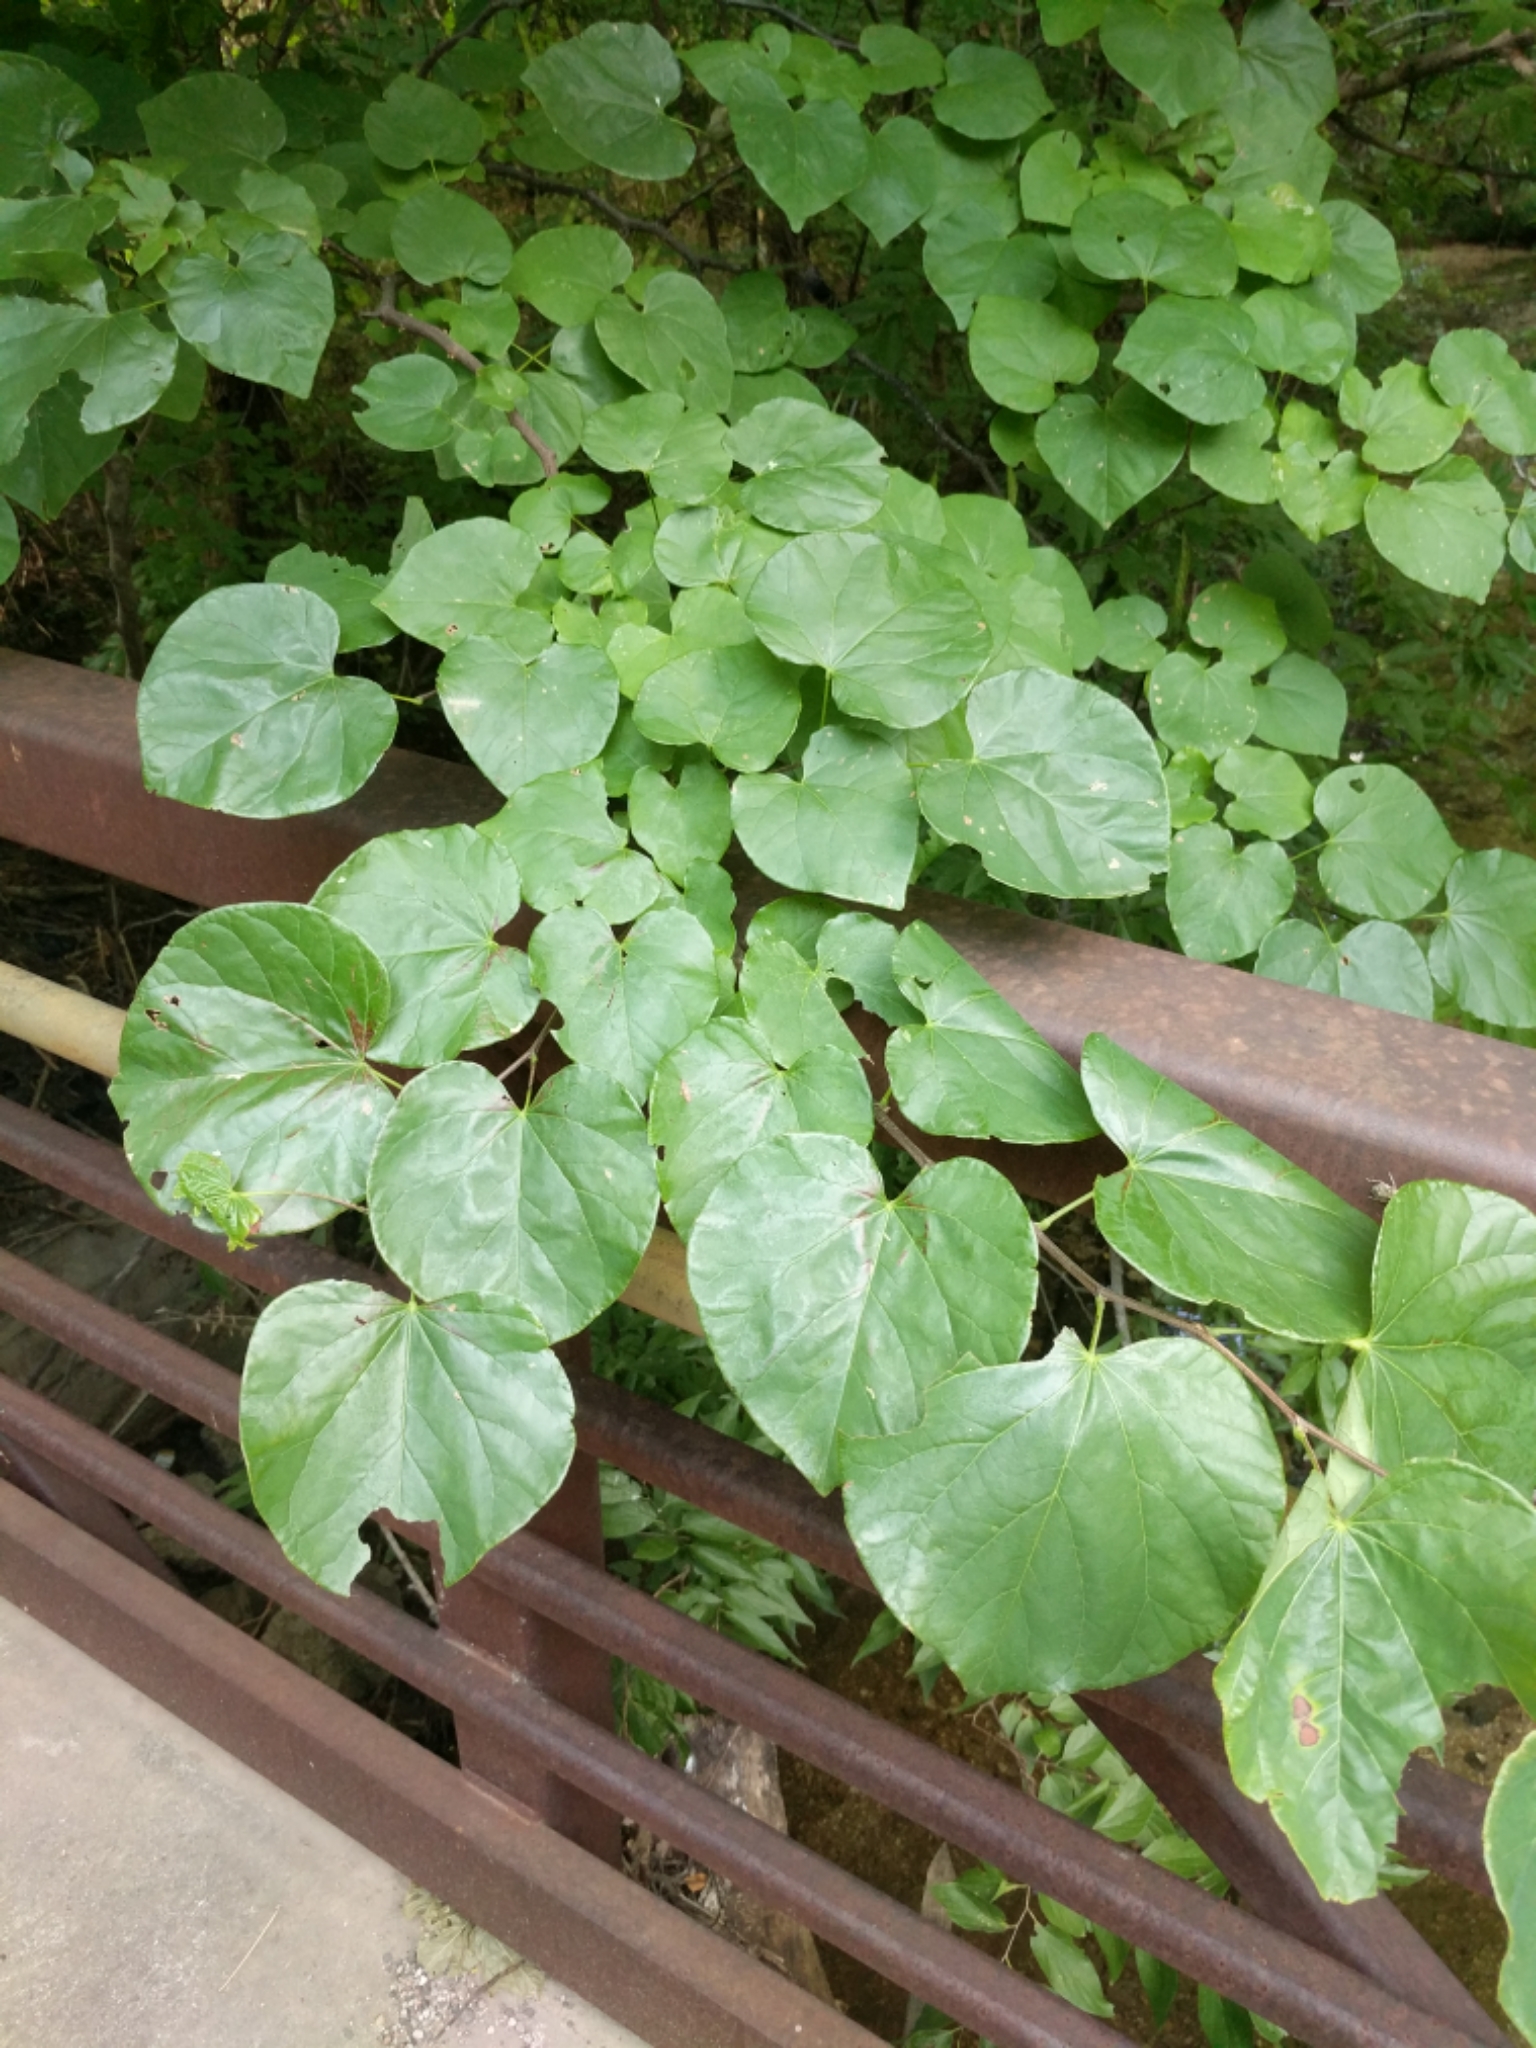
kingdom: Plantae
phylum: Tracheophyta
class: Magnoliopsida
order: Fabales
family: Fabaceae
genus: Cercis
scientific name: Cercis canadensis
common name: Eastern redbud
